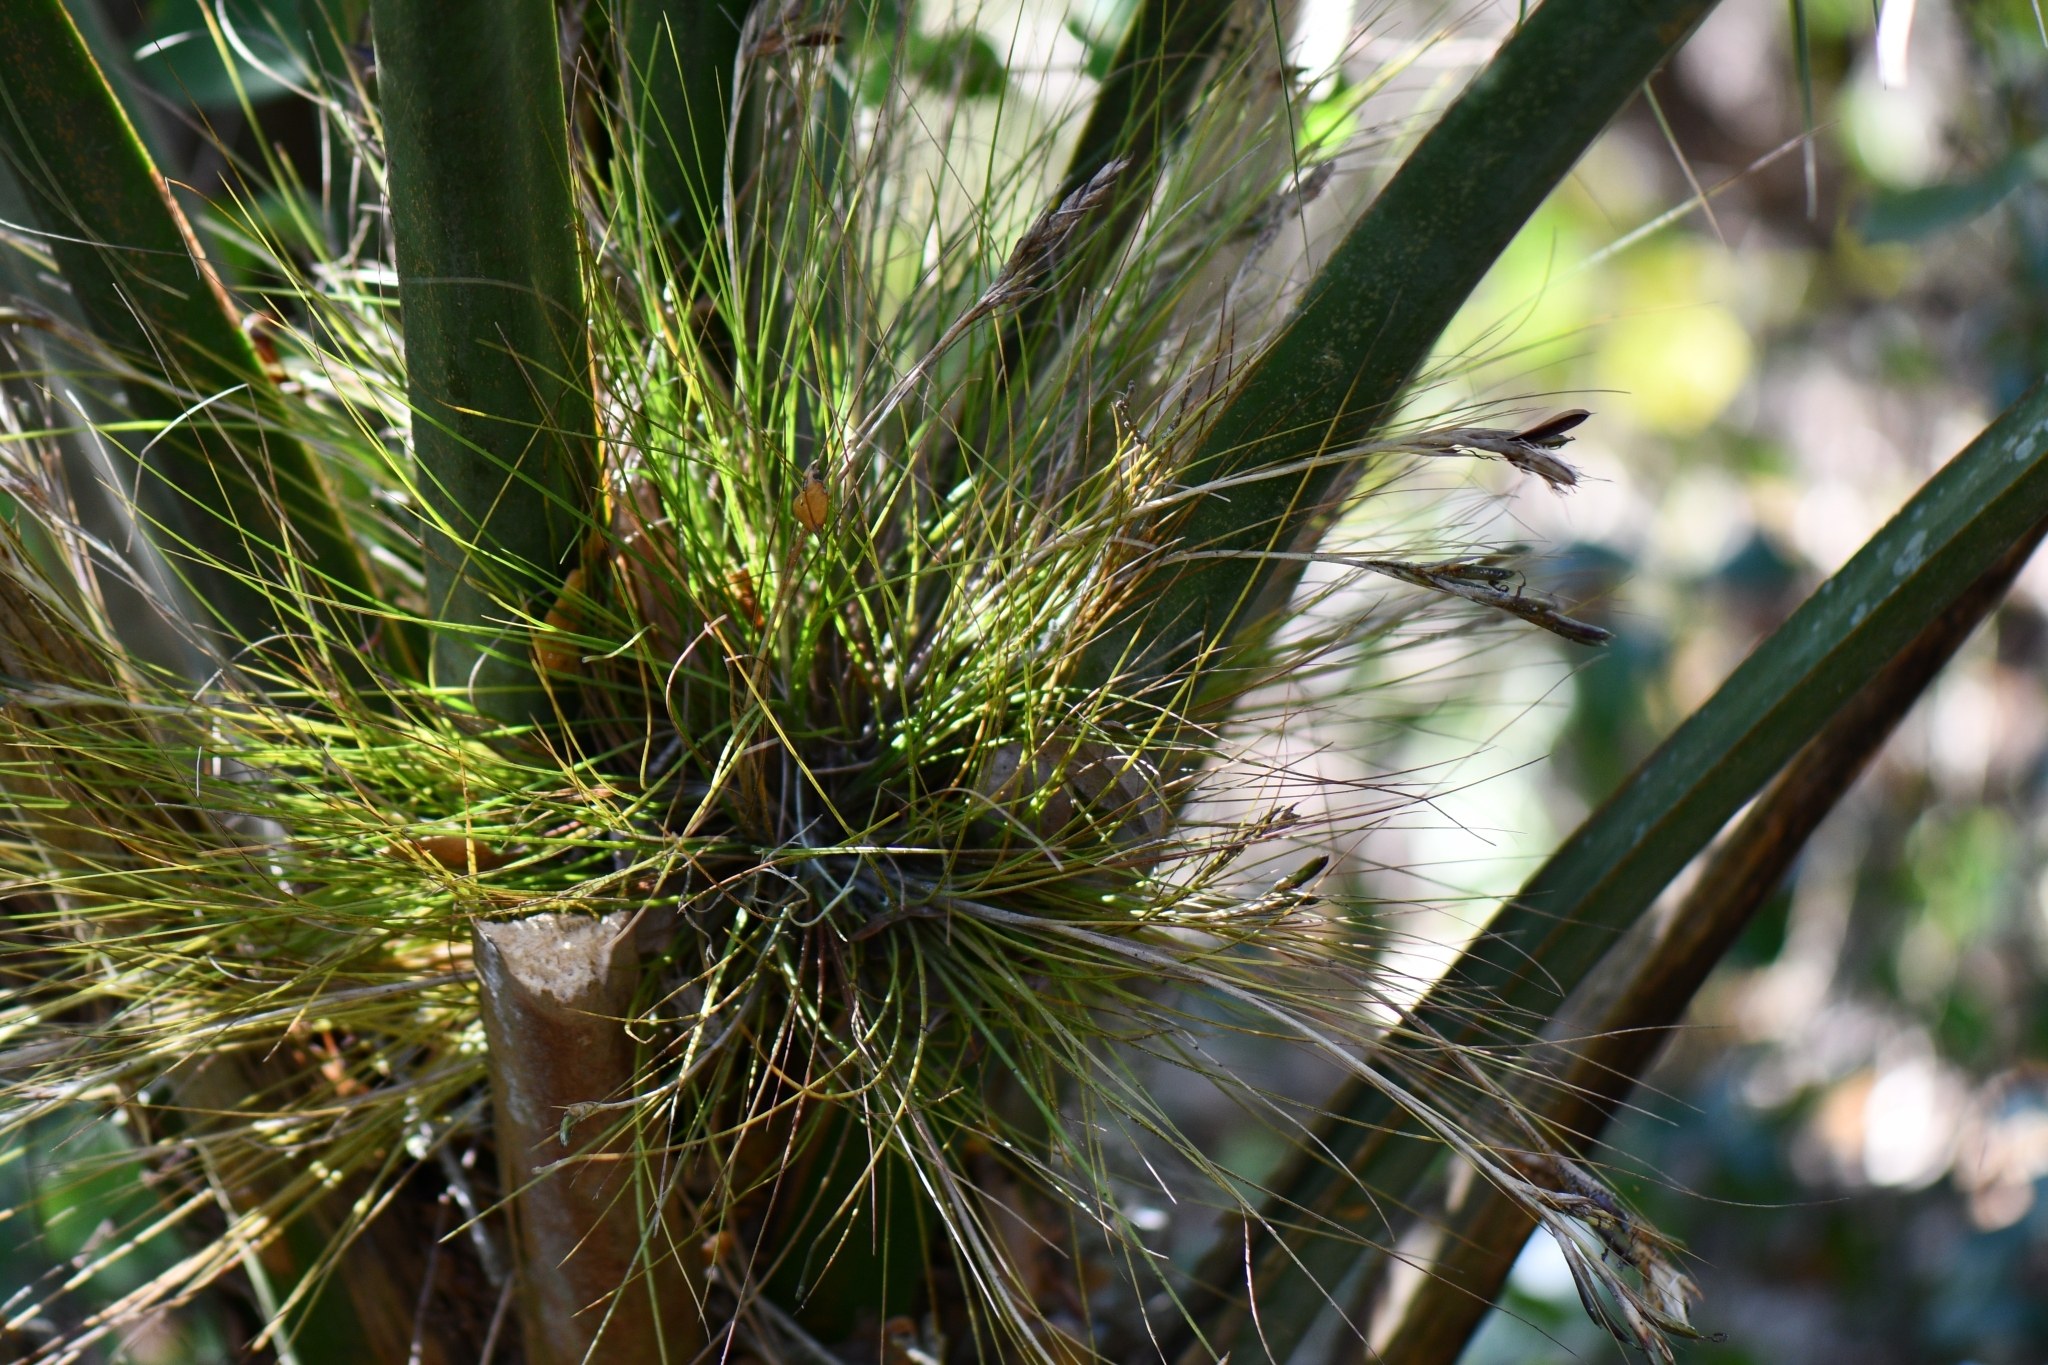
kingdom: Plantae
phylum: Tracheophyta
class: Liliopsida
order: Poales
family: Bromeliaceae
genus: Tillandsia
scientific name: Tillandsia setacea
